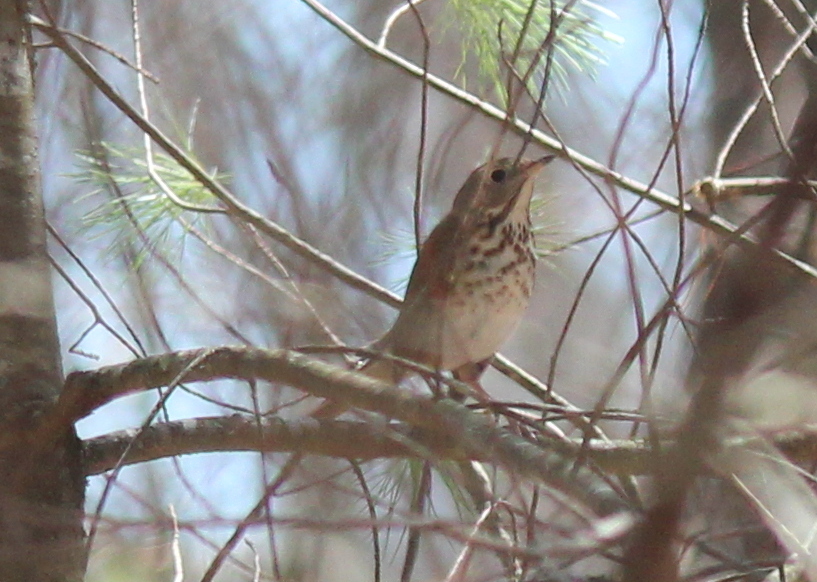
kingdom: Animalia
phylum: Chordata
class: Aves
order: Passeriformes
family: Turdidae
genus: Catharus
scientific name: Catharus guttatus
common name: Hermit thrush
